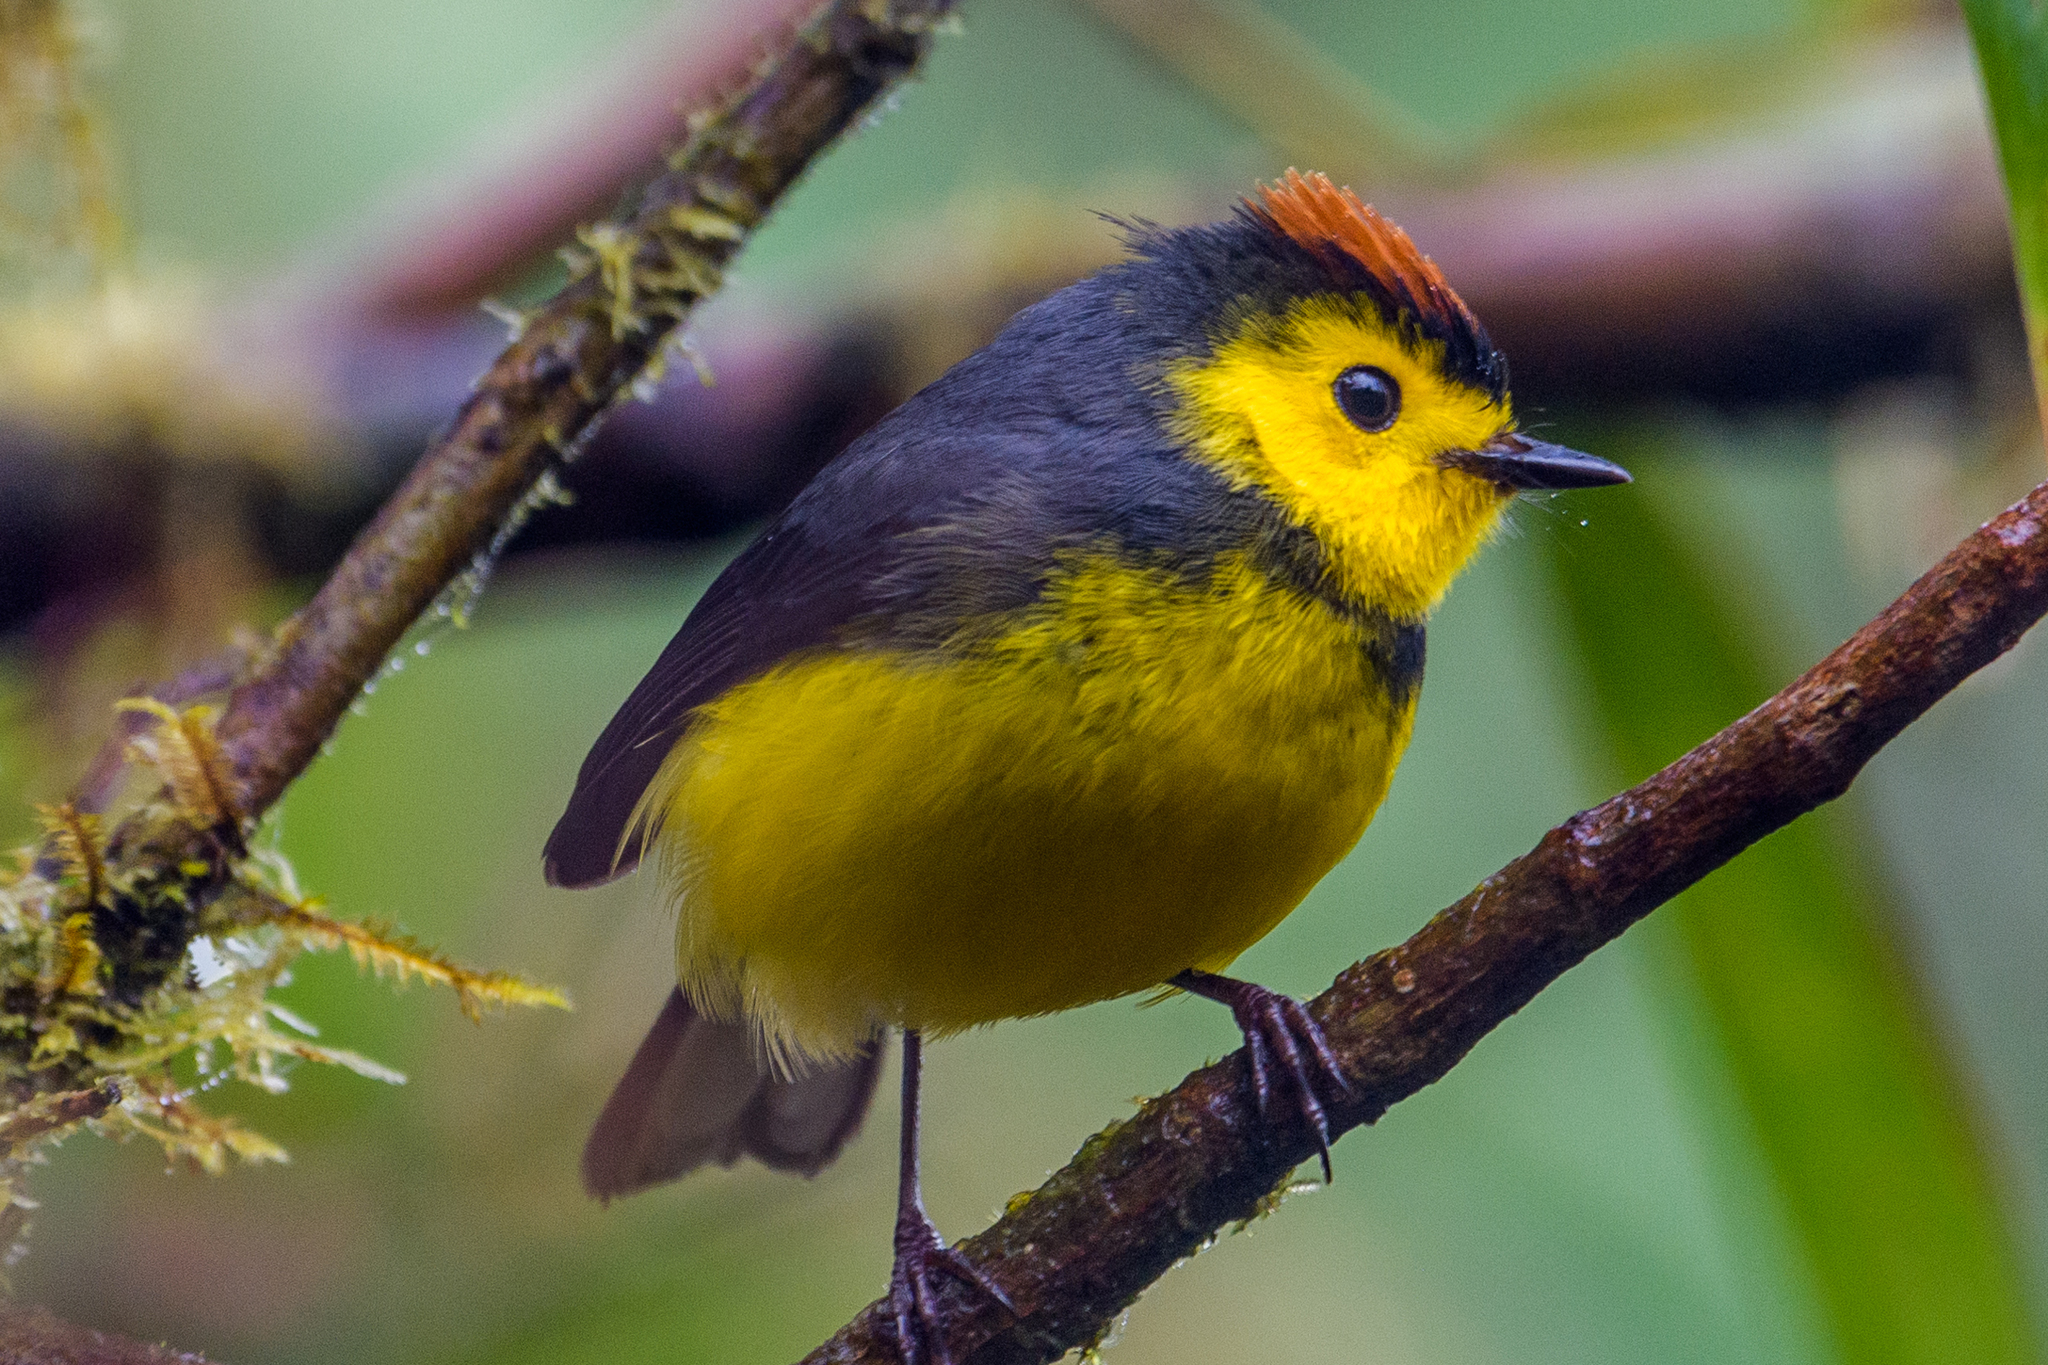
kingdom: Animalia
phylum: Chordata
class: Aves
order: Passeriformes
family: Parulidae
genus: Myioborus
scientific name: Myioborus torquatus
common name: Collared whitestart
